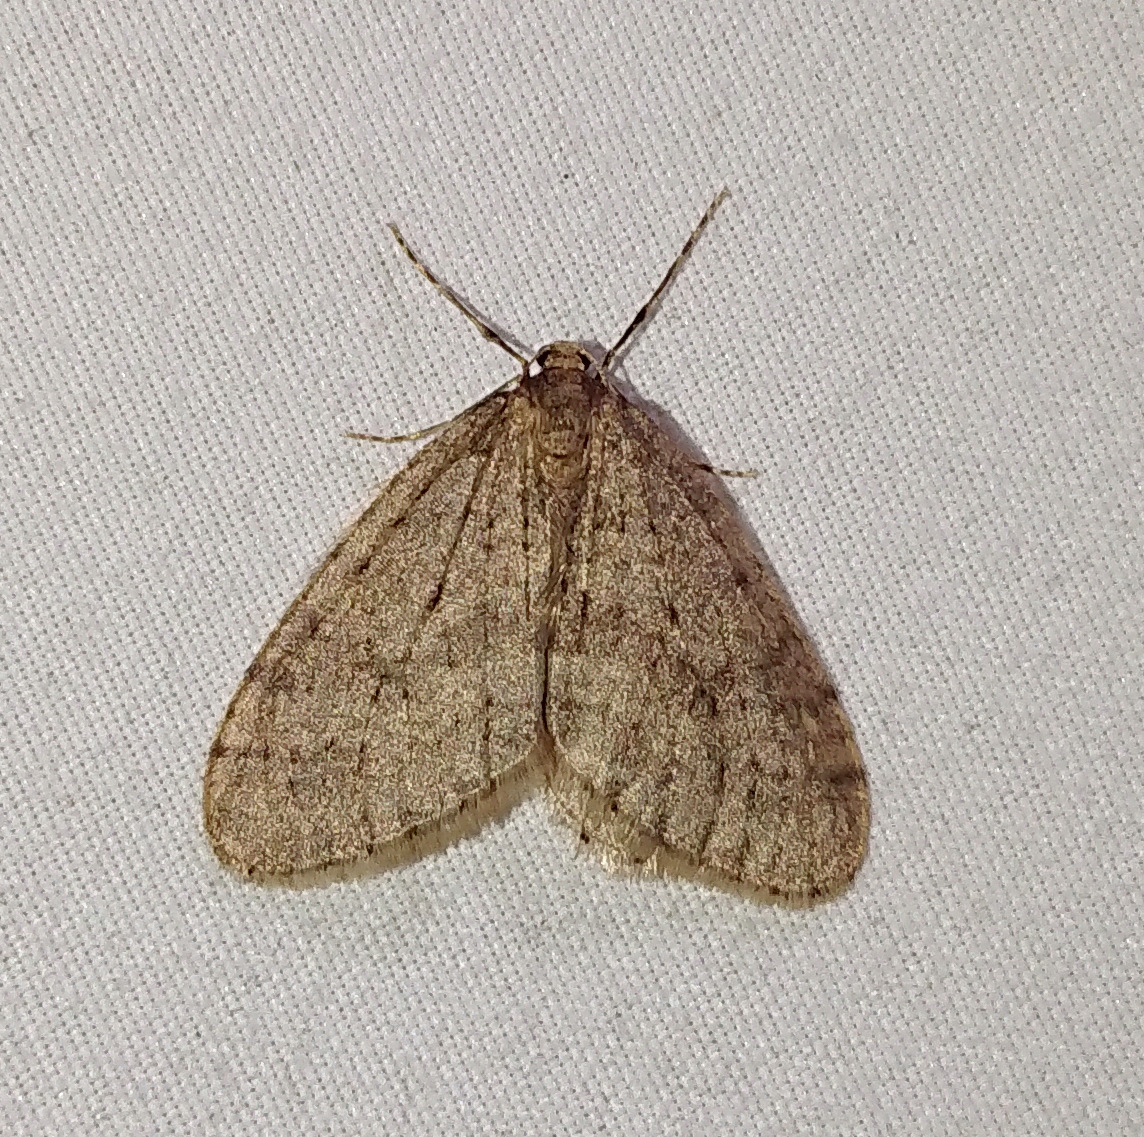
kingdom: Animalia
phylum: Arthropoda
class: Insecta
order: Lepidoptera
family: Geometridae
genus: Operophtera
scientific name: Operophtera brumata
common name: Winter moth
